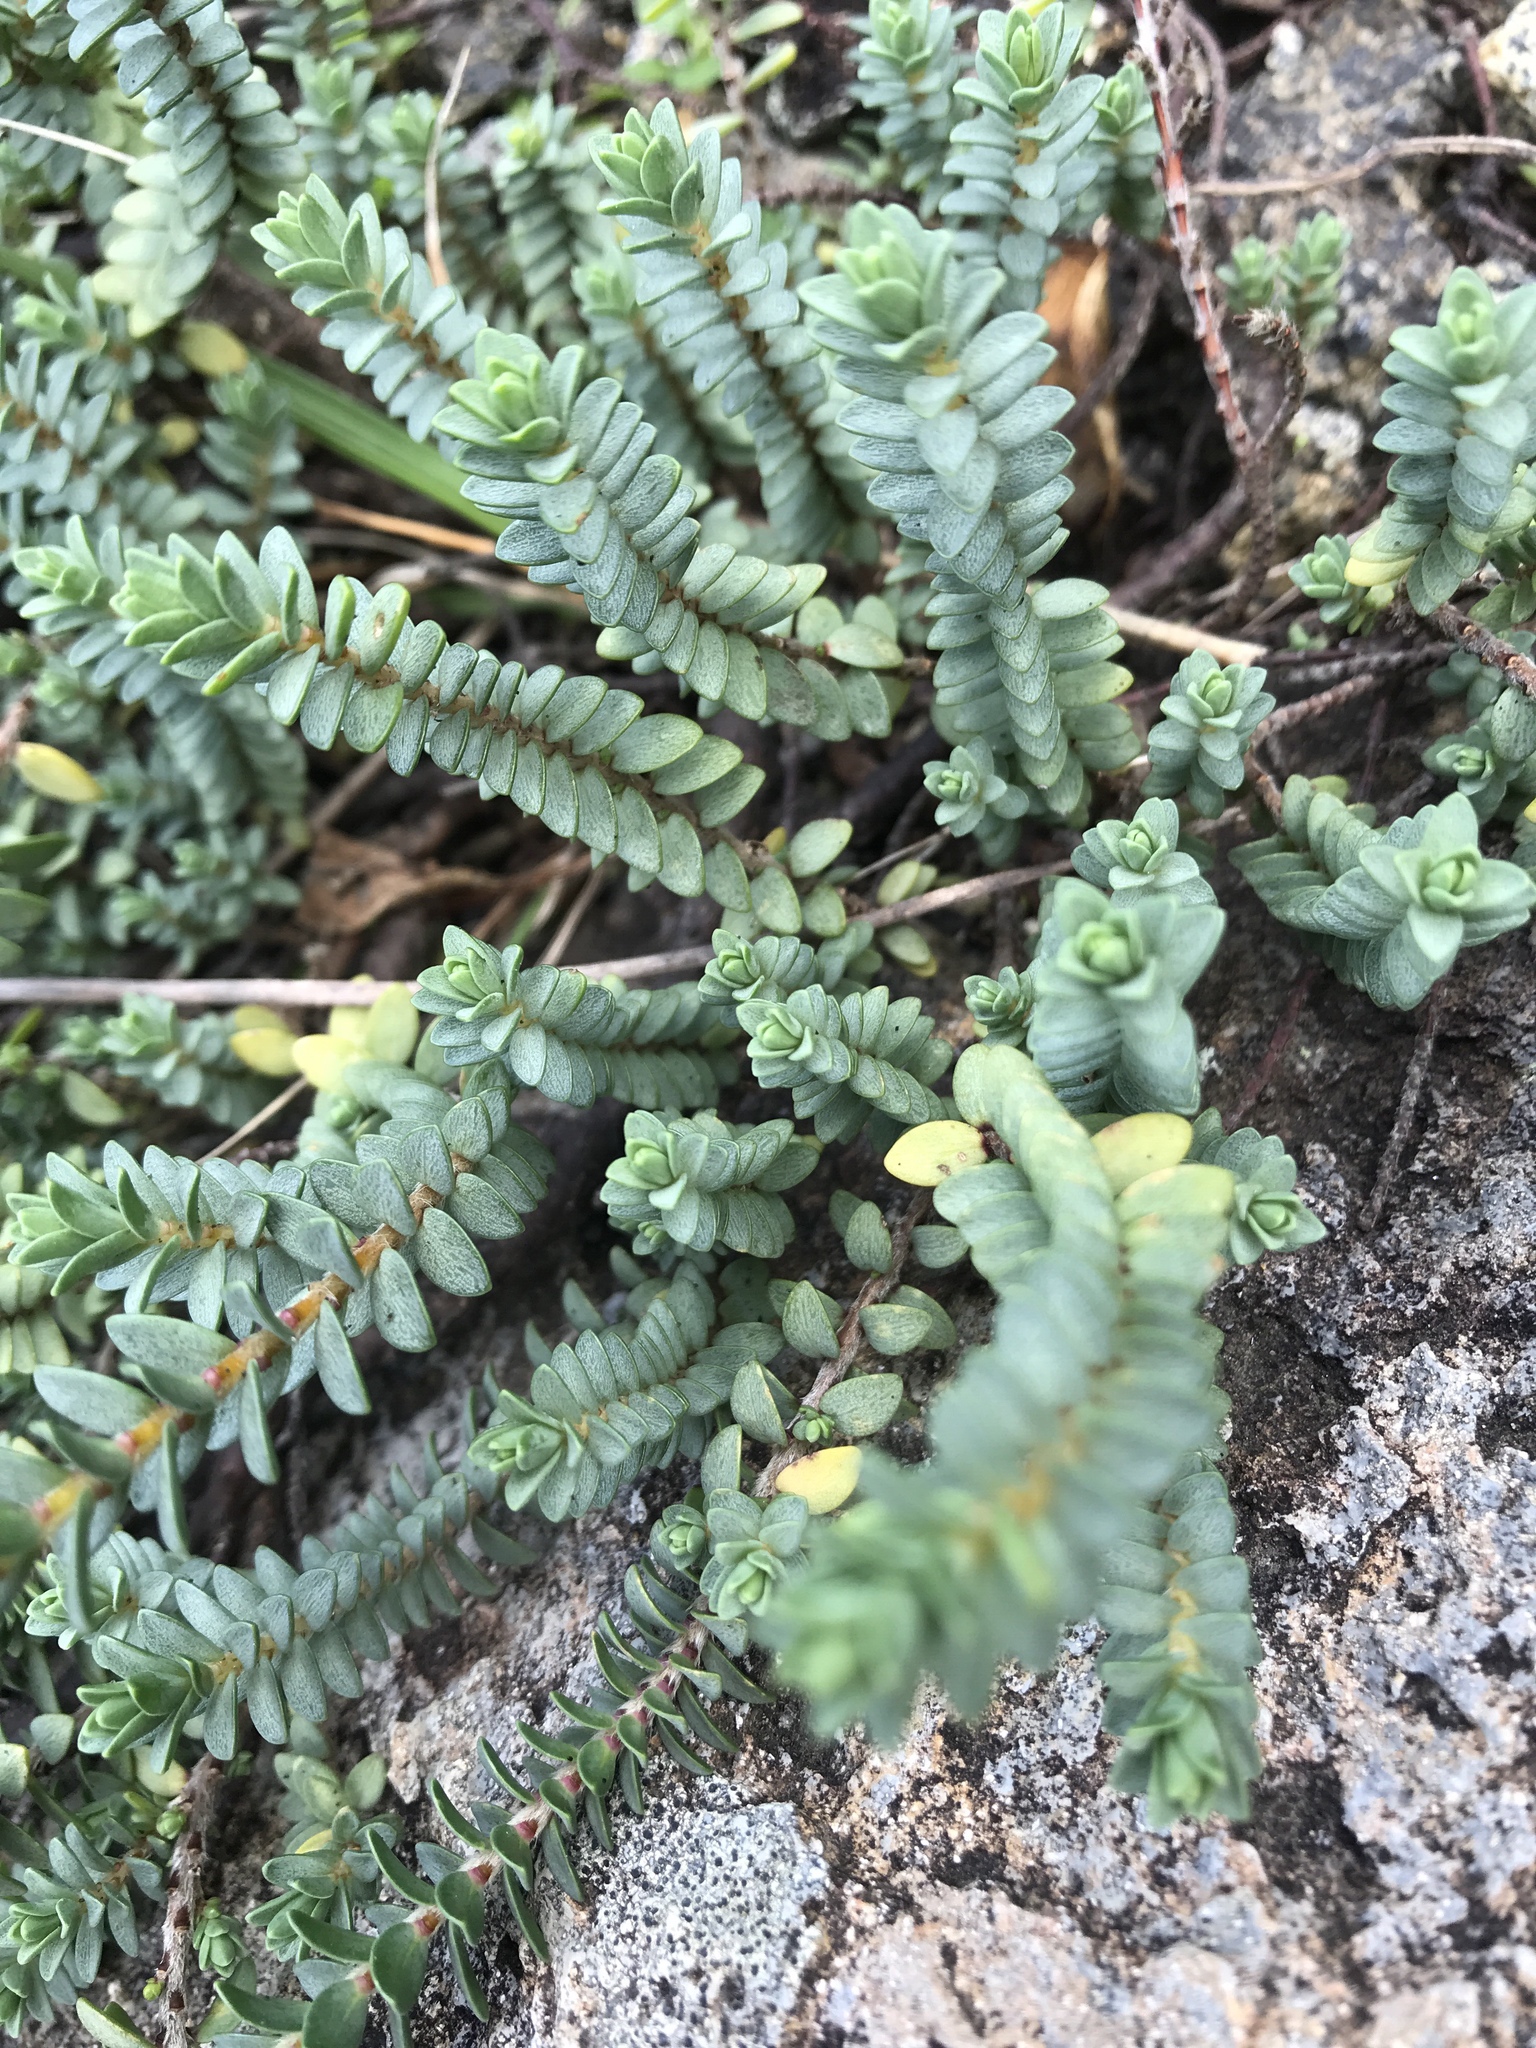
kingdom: Plantae
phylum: Tracheophyta
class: Magnoliopsida
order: Malvales
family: Thymelaeaceae
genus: Pimelea
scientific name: Pimelea prostrata
